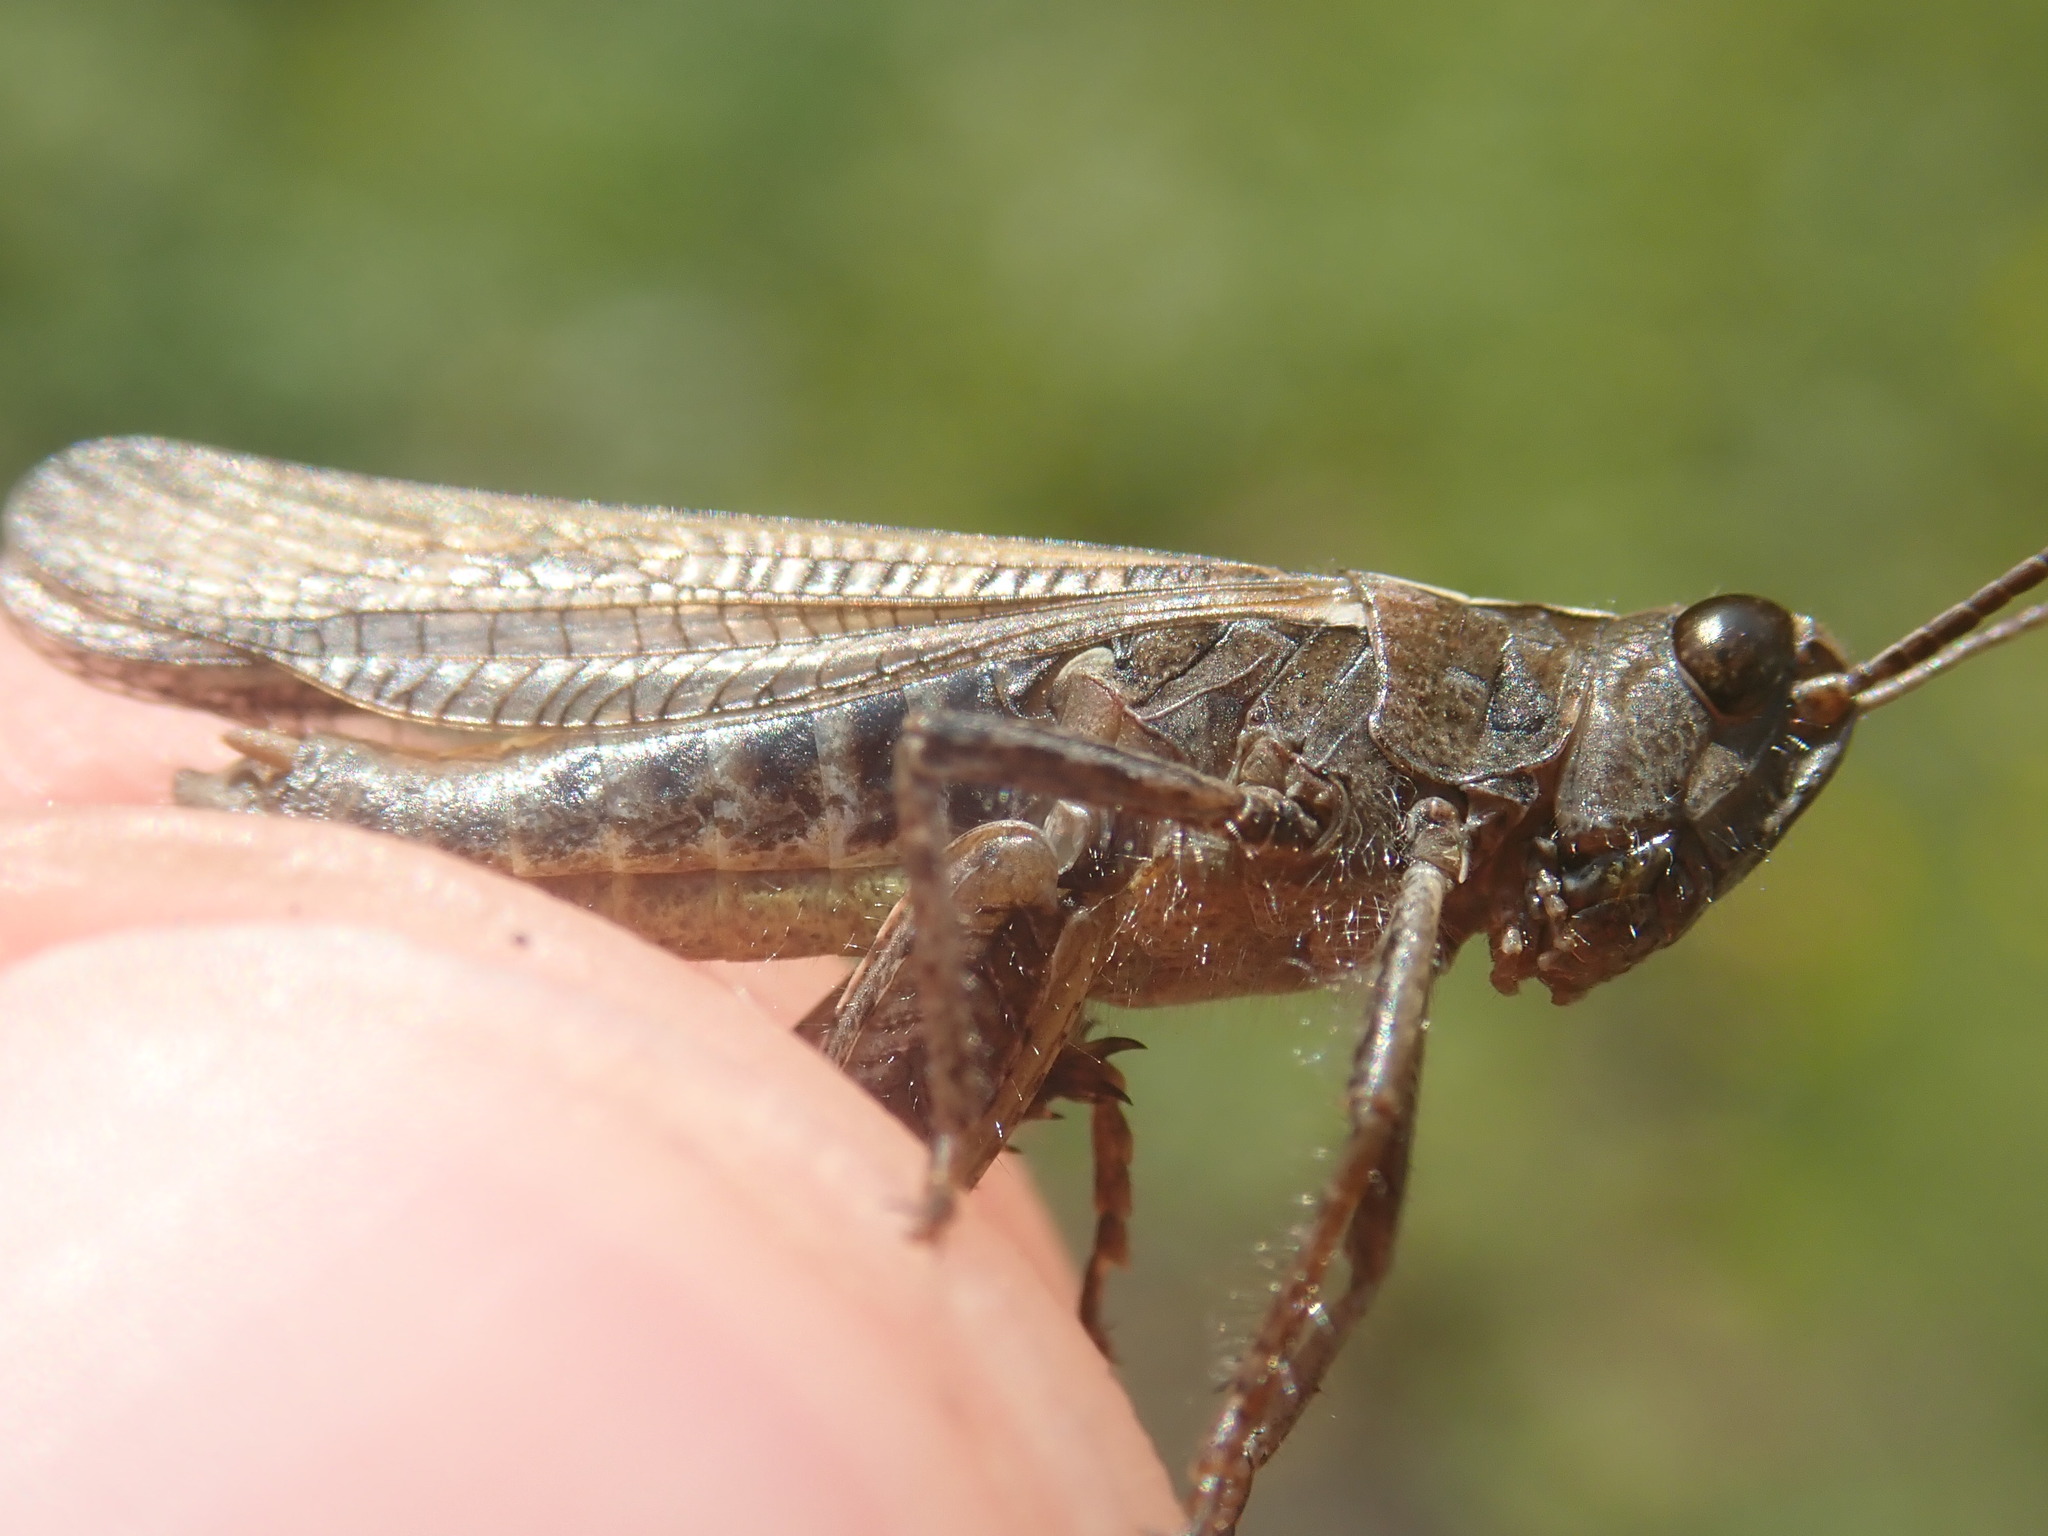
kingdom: Animalia
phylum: Arthropoda
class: Insecta
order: Orthoptera
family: Acrididae
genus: Chorthippus
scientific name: Chorthippus biguttulus
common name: Bow-winged grasshopper
